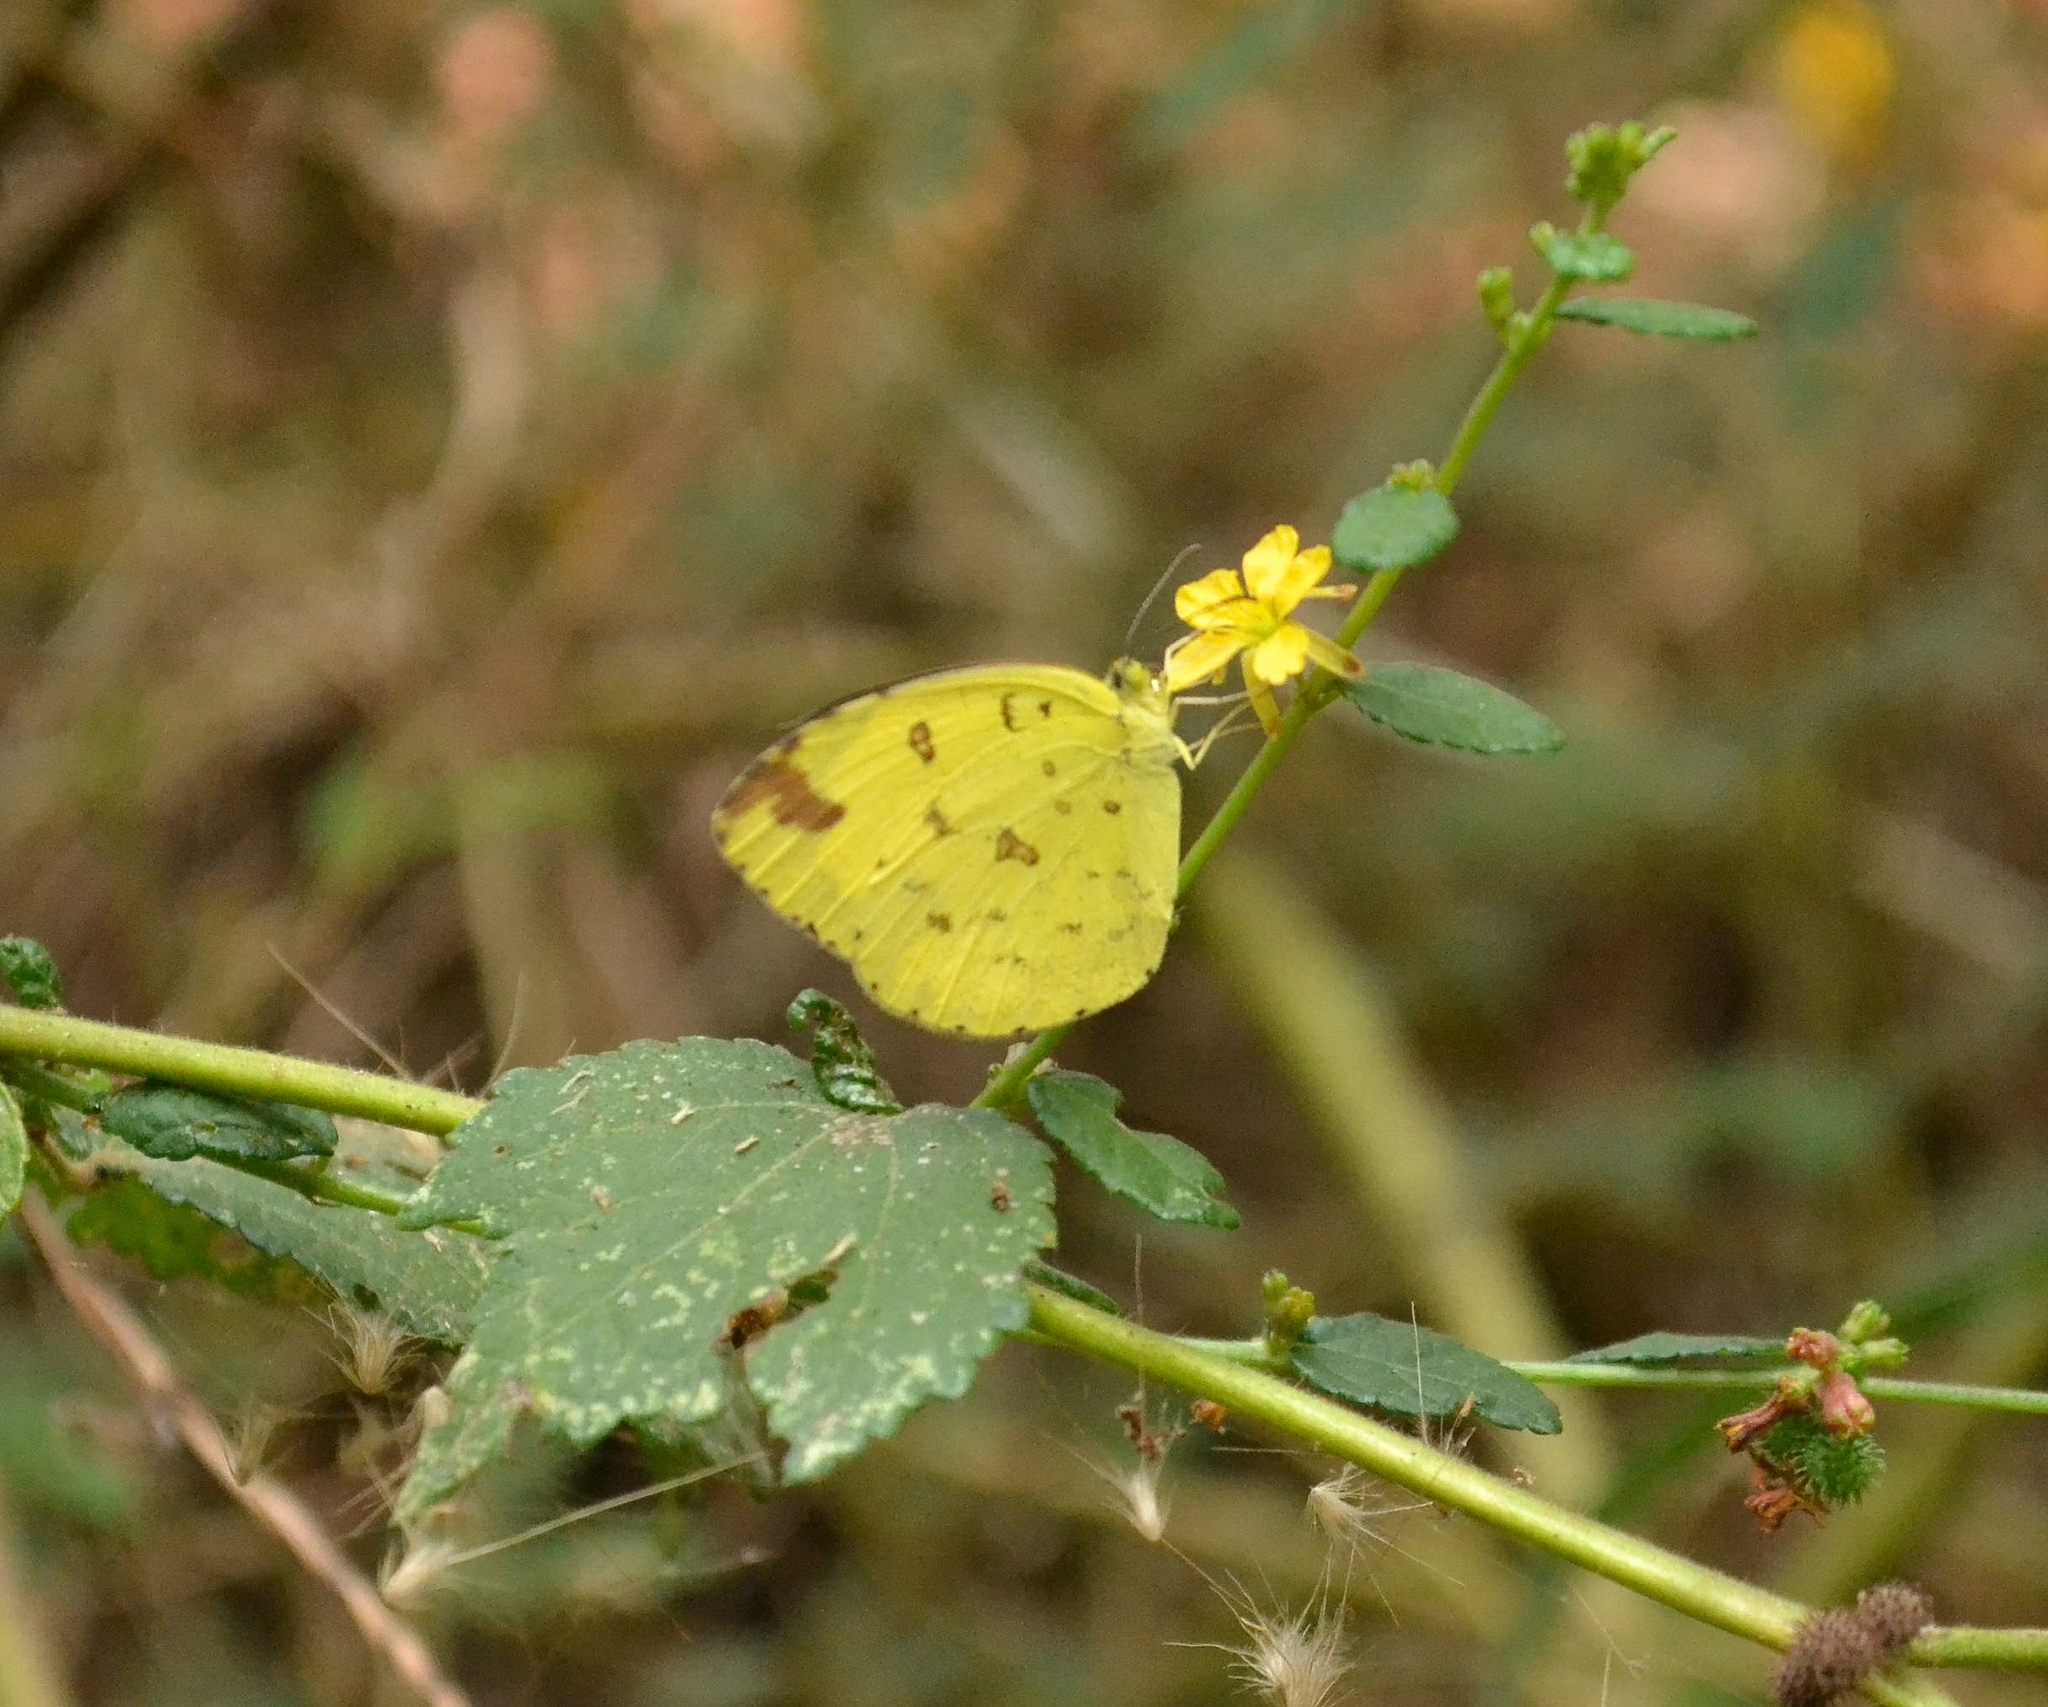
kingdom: Animalia
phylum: Arthropoda
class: Insecta
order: Lepidoptera
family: Pieridae
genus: Eurema
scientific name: Eurema hecabe
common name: Pale grass yellow
